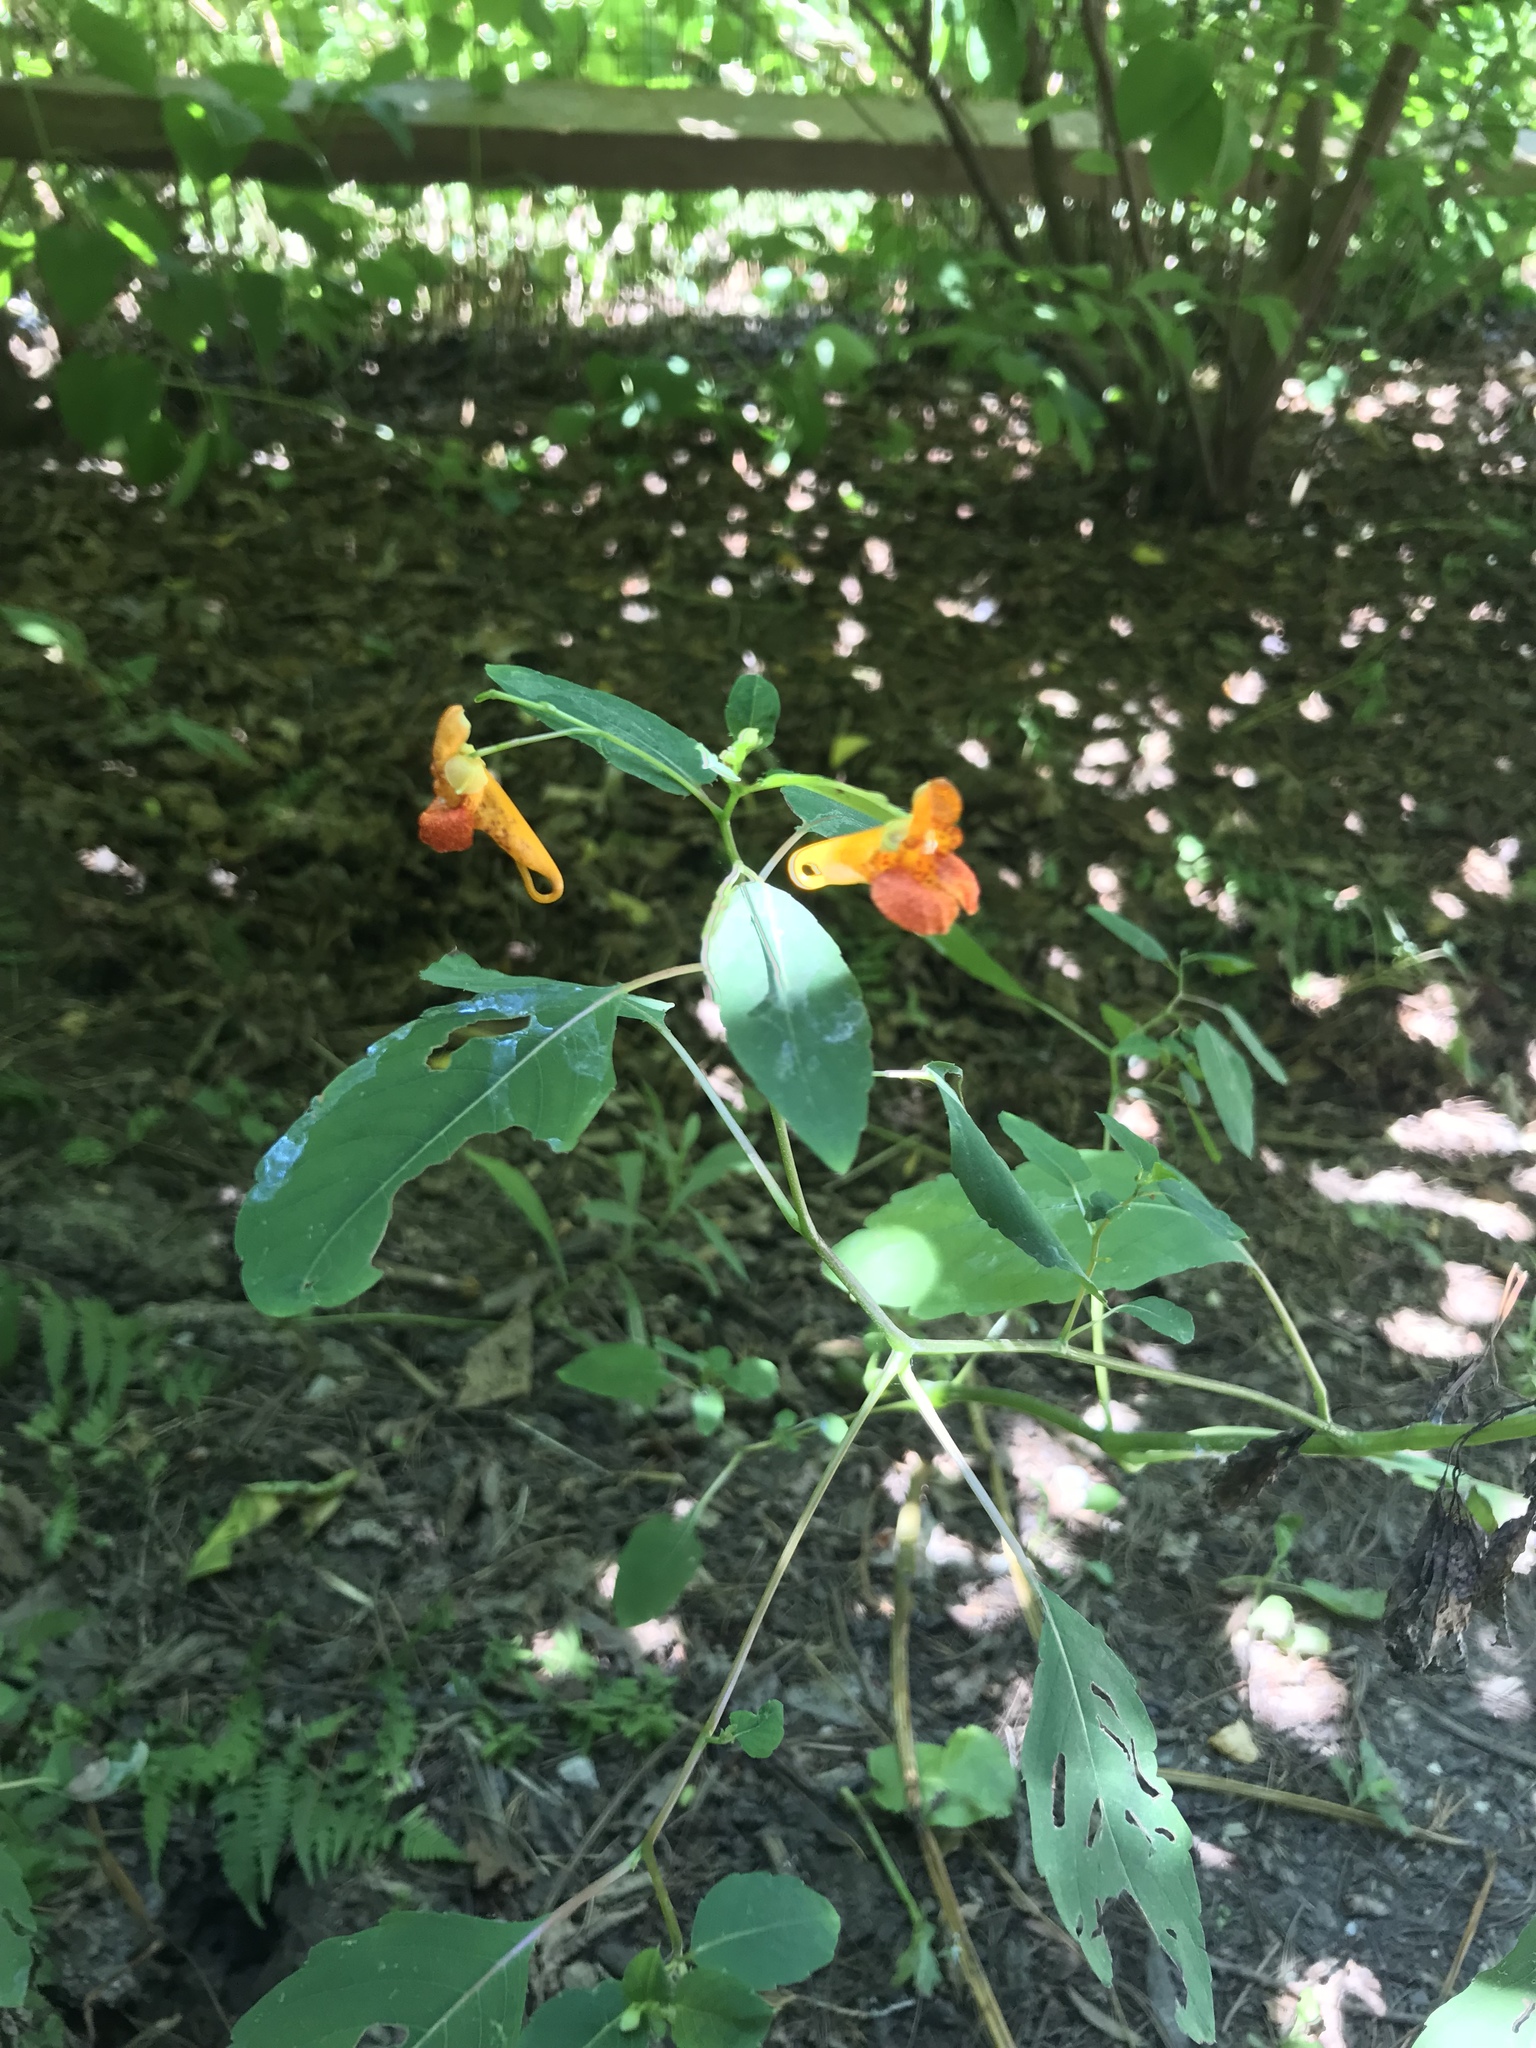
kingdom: Plantae
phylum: Tracheophyta
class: Magnoliopsida
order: Ericales
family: Balsaminaceae
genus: Impatiens
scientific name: Impatiens capensis
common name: Orange balsam
